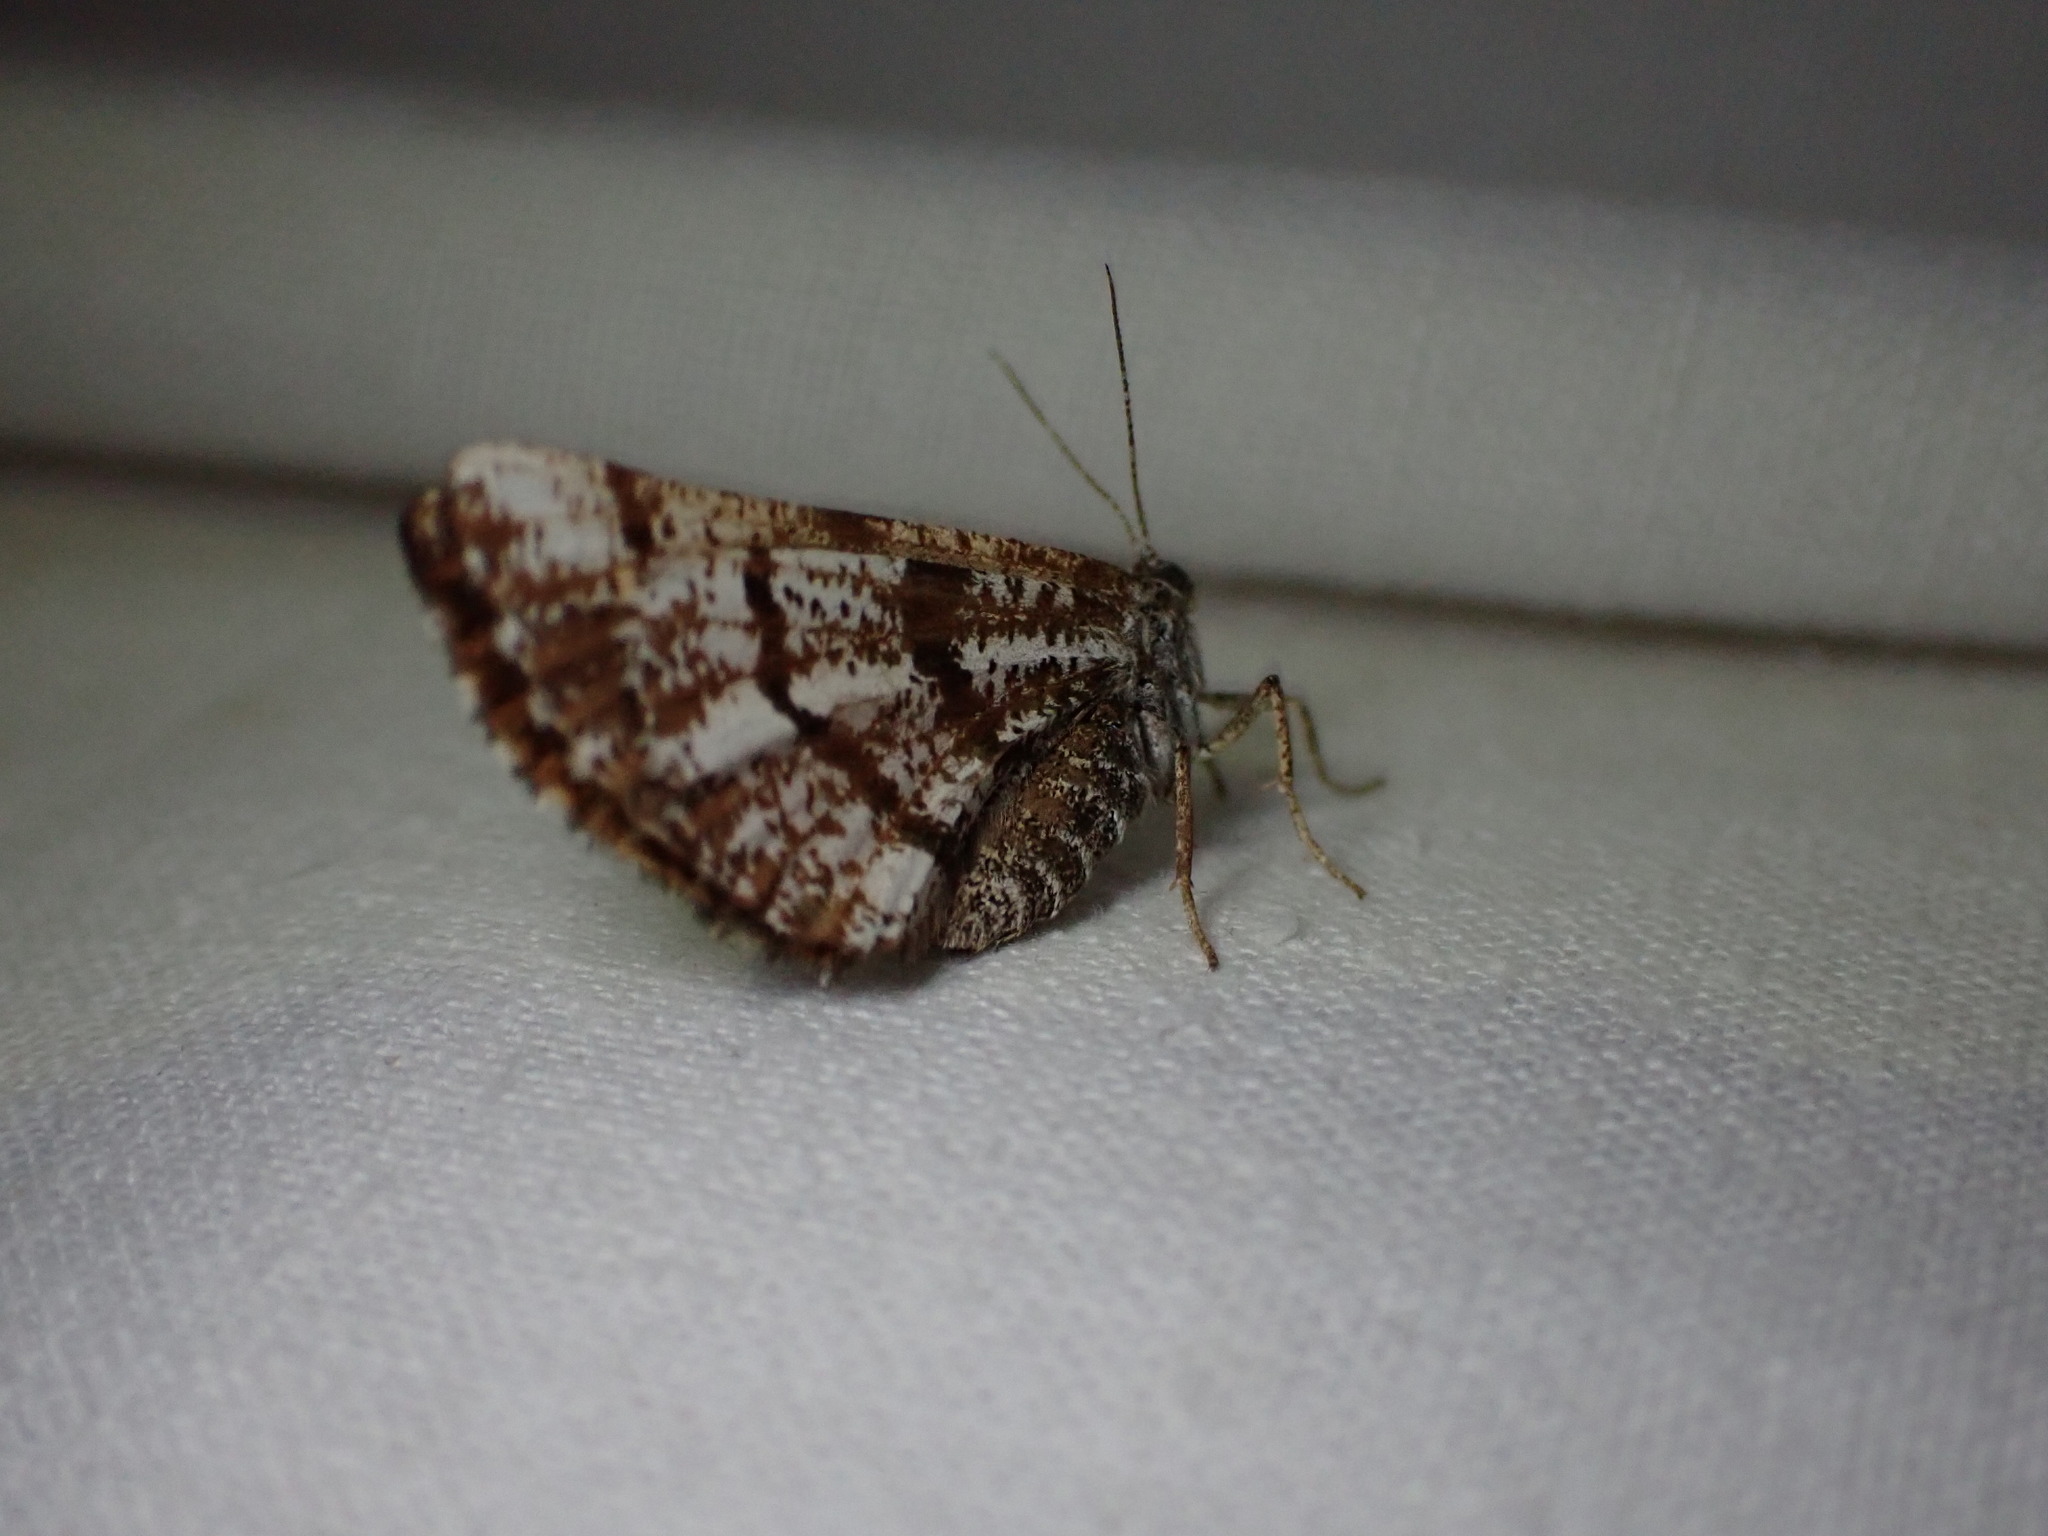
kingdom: Animalia
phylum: Arthropoda
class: Insecta
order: Lepidoptera
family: Geometridae
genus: Bupalus
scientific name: Bupalus piniaria
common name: Bordered white
